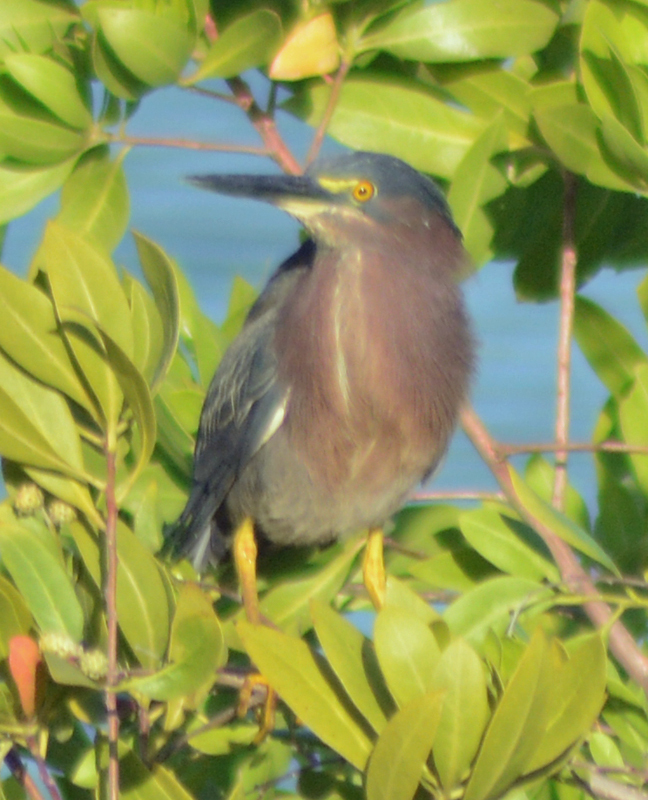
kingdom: Animalia
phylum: Chordata
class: Aves
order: Pelecaniformes
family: Ardeidae
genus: Butorides
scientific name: Butorides virescens
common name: Green heron
